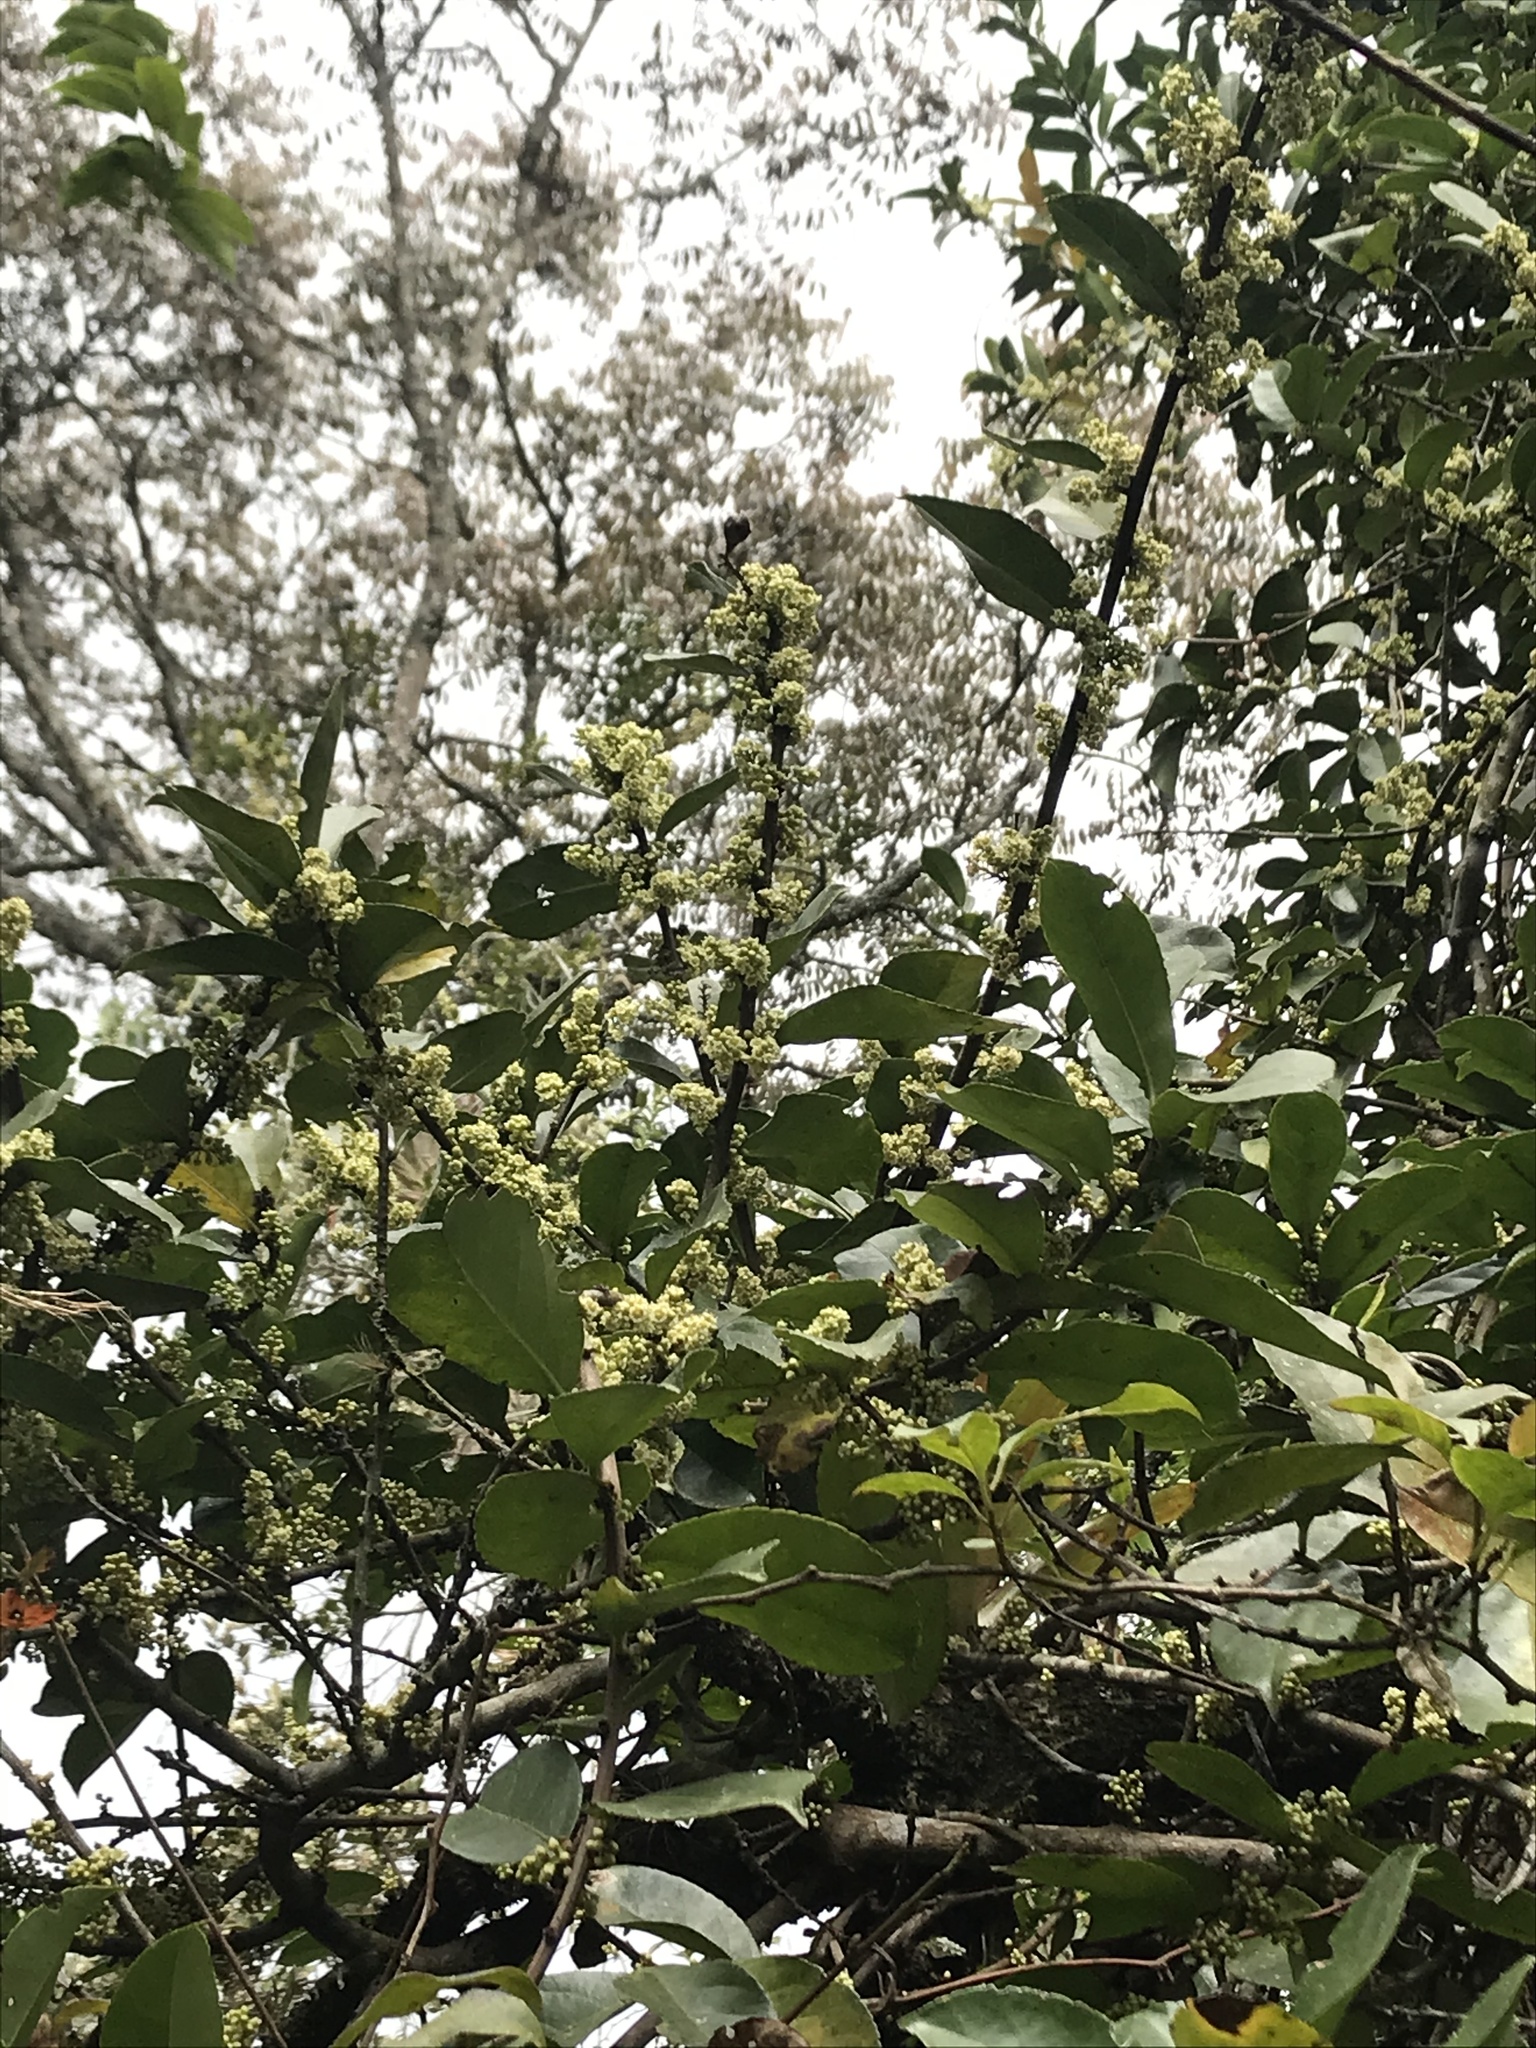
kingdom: Plantae
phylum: Tracheophyta
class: Magnoliopsida
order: Celastrales
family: Celastraceae
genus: Celastrus
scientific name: Celastrus meridensis
